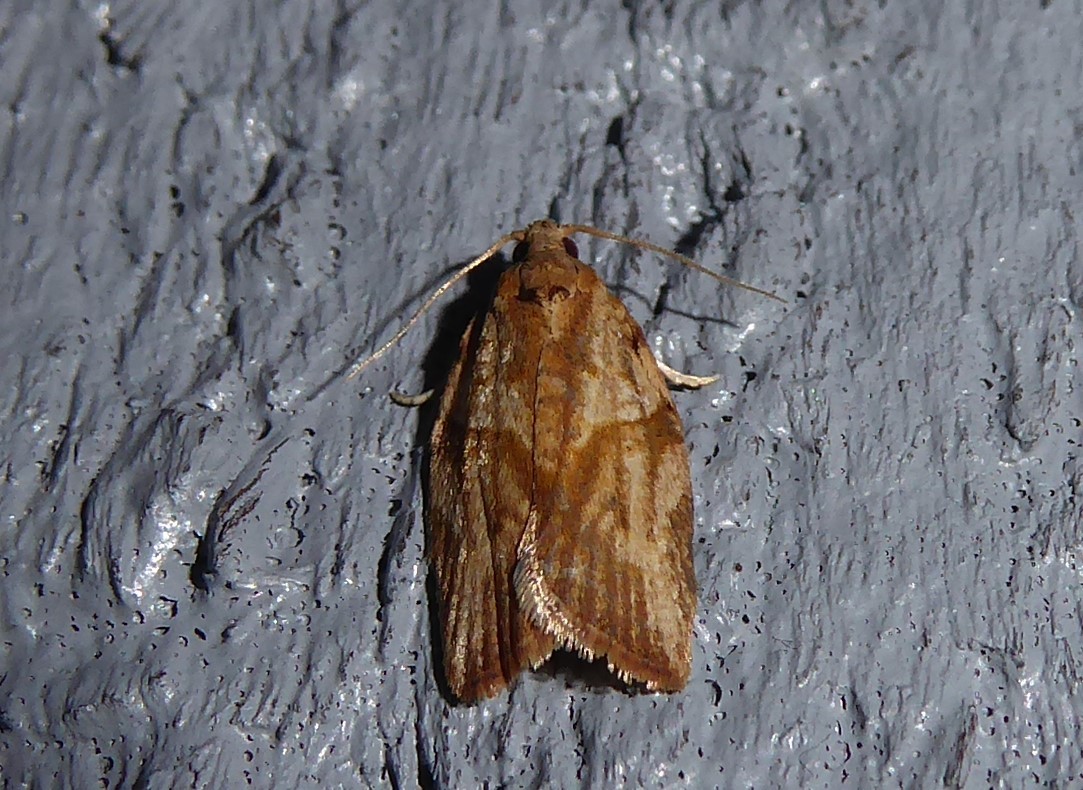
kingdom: Animalia
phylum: Arthropoda
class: Insecta
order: Lepidoptera
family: Tortricidae
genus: Epiphyas
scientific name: Epiphyas postvittana
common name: Light brown apple moth
